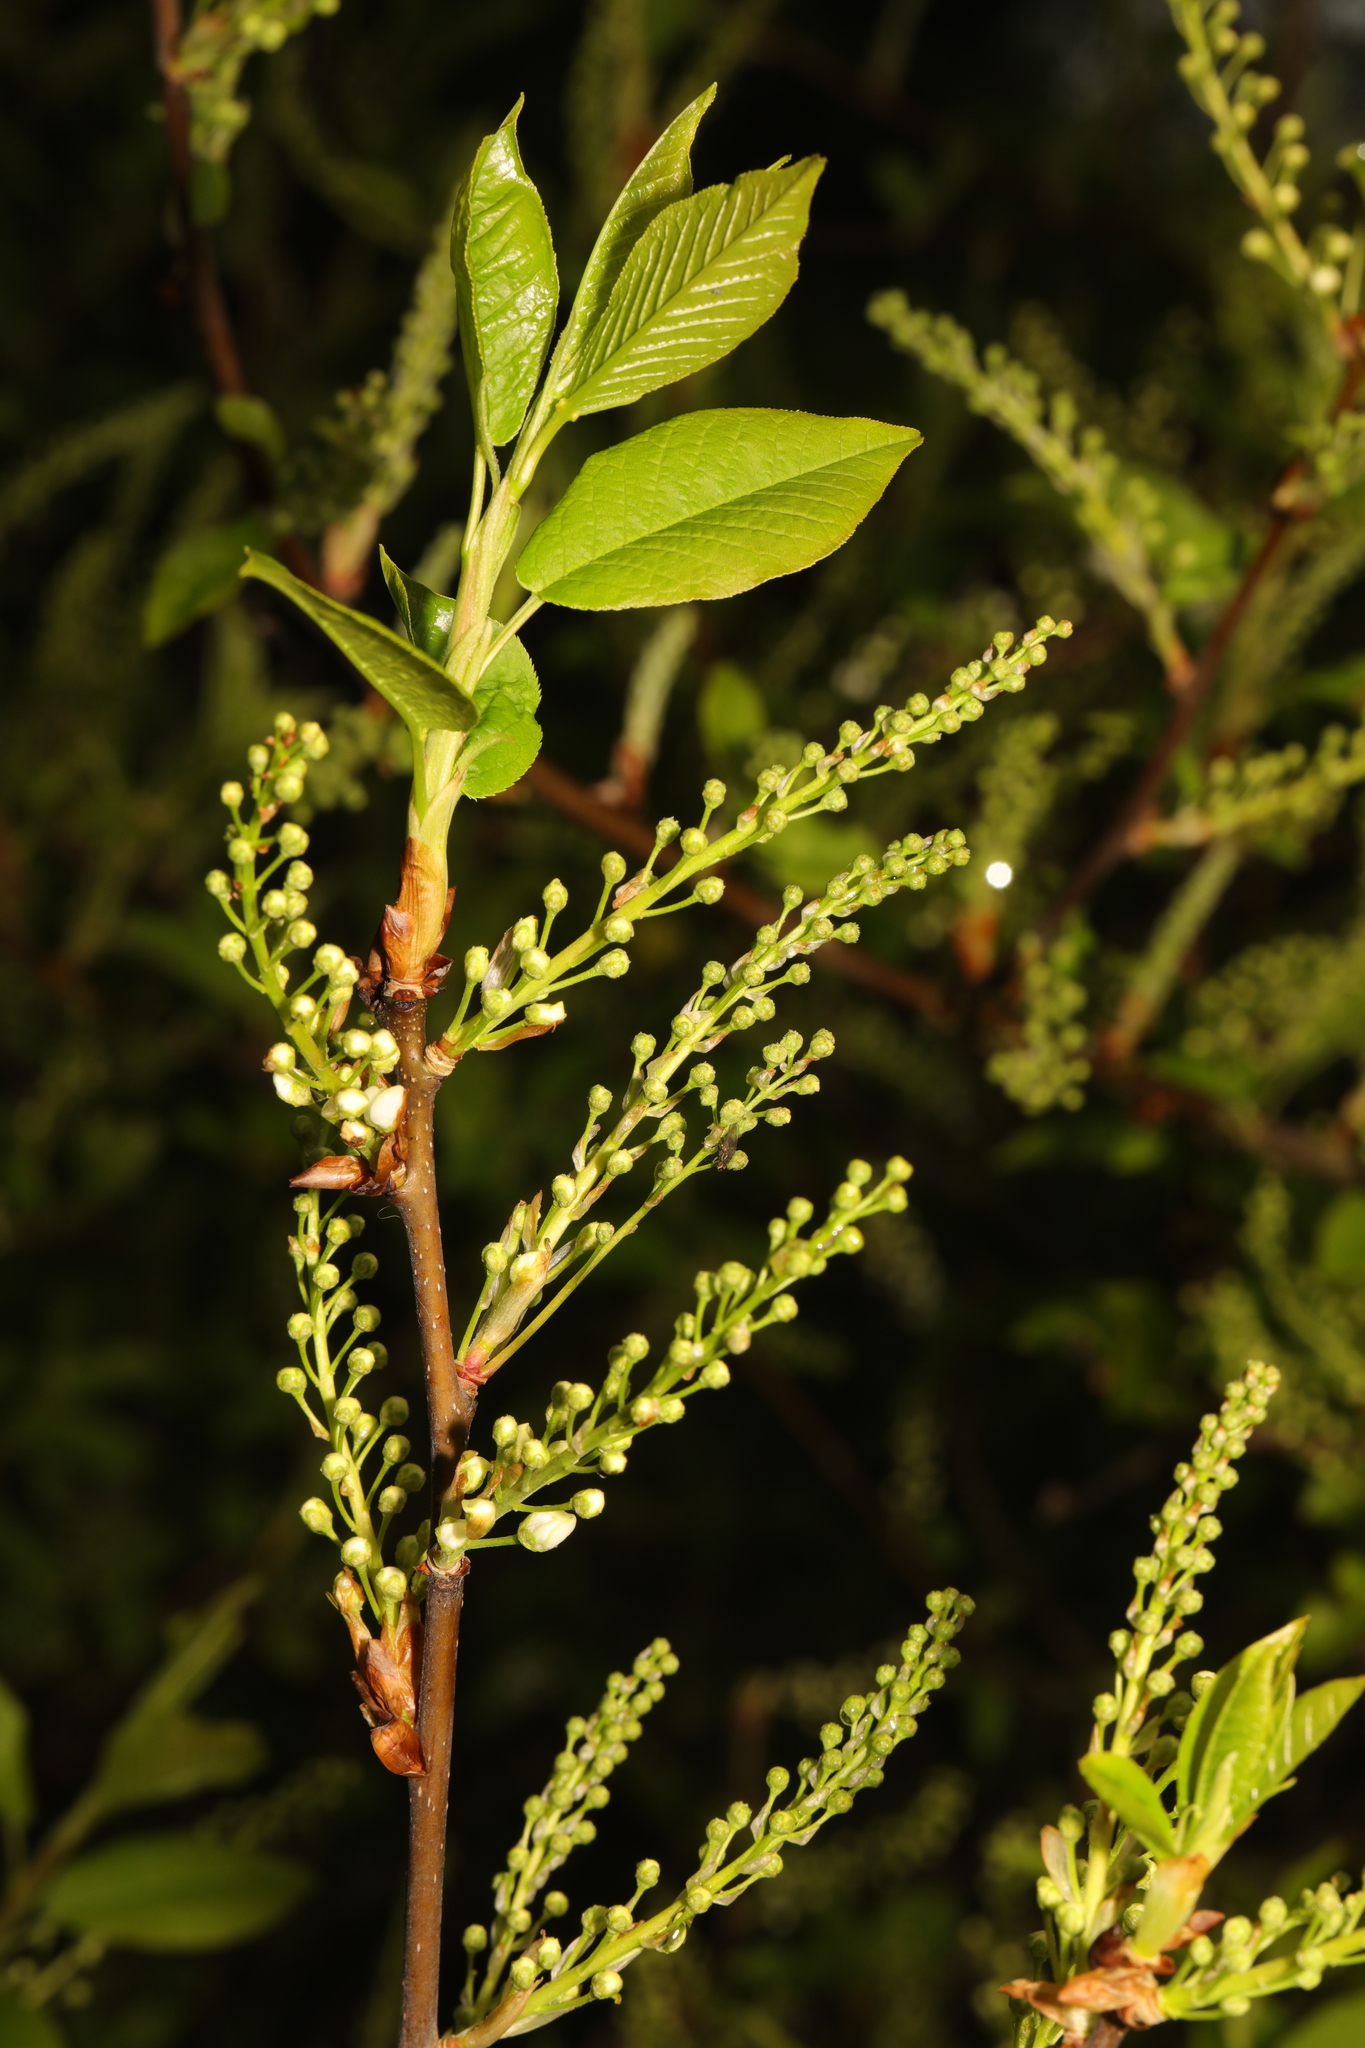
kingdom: Plantae
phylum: Tracheophyta
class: Magnoliopsida
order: Rosales
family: Rosaceae
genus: Prunus
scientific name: Prunus padus
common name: Bird cherry
